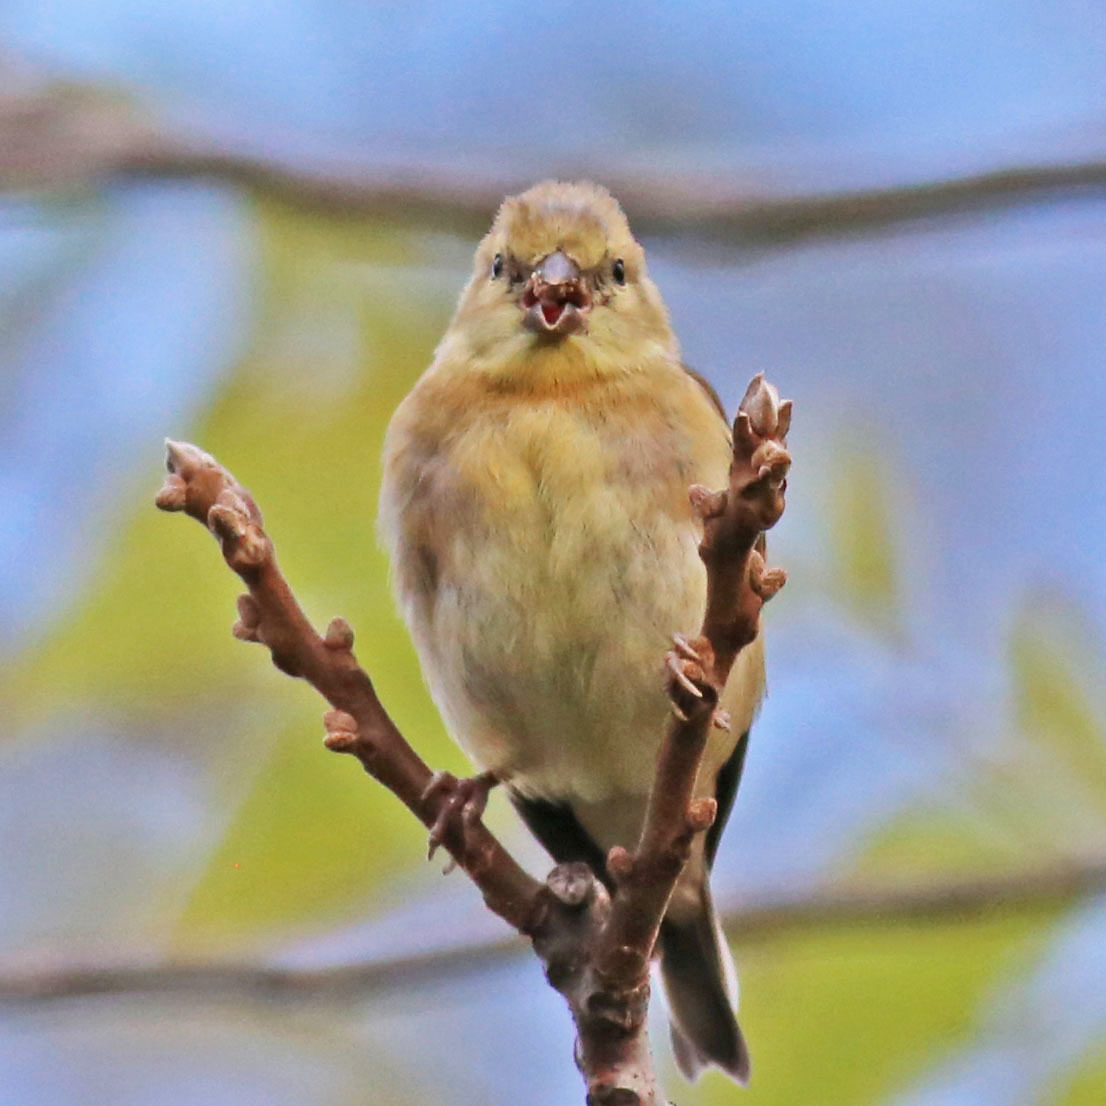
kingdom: Animalia
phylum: Chordata
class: Aves
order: Passeriformes
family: Fringillidae
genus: Spinus
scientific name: Spinus tristis
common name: American goldfinch
